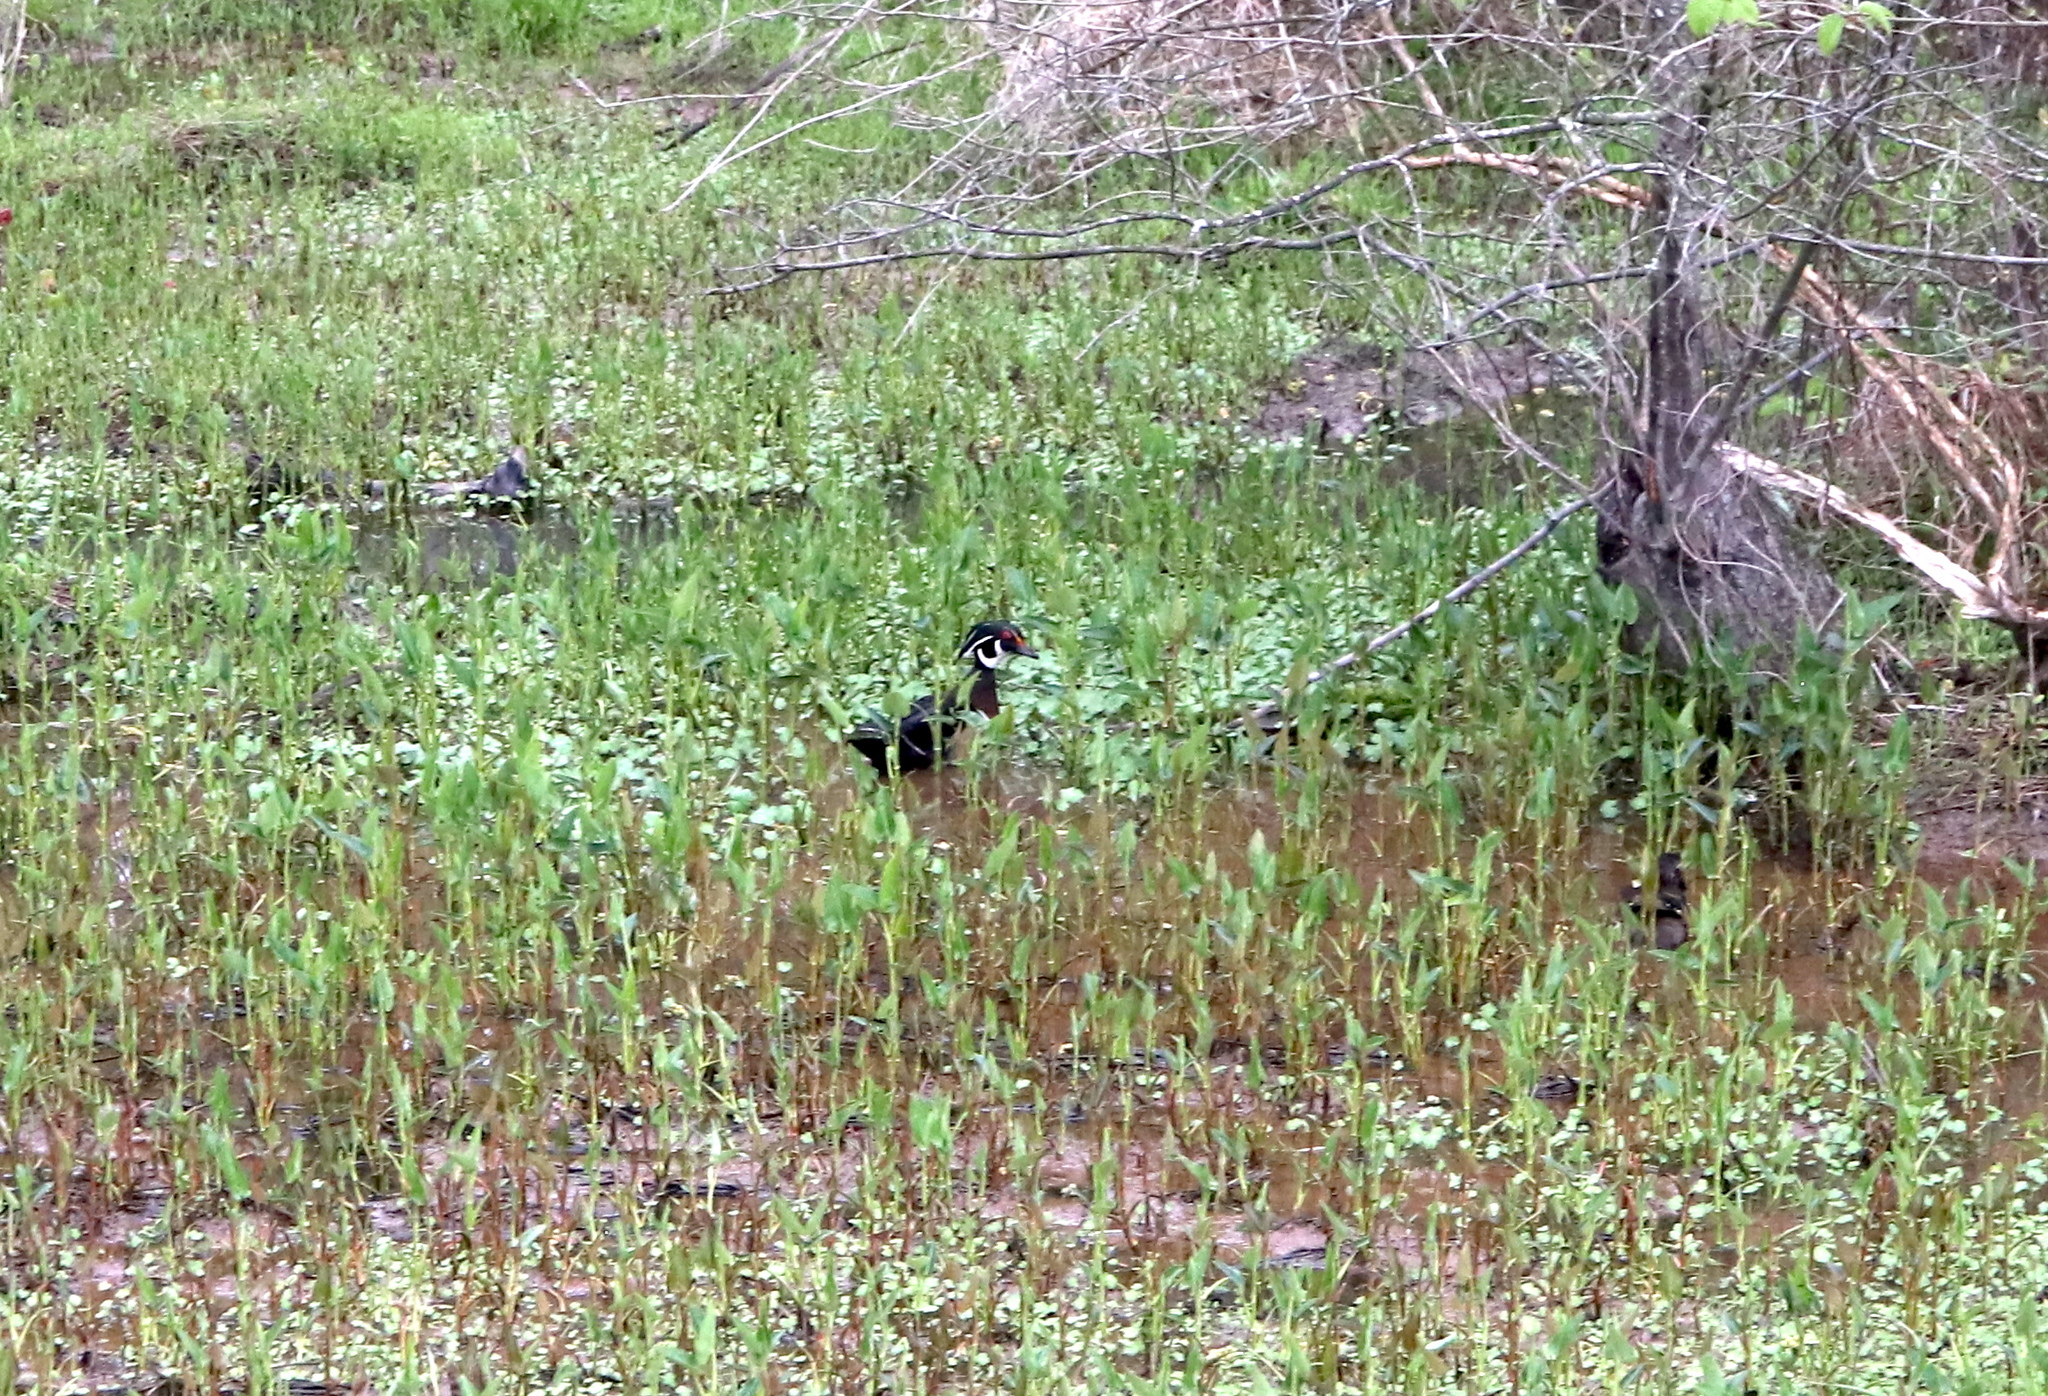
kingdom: Animalia
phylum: Chordata
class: Aves
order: Anseriformes
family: Anatidae
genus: Aix
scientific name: Aix sponsa
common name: Wood duck
